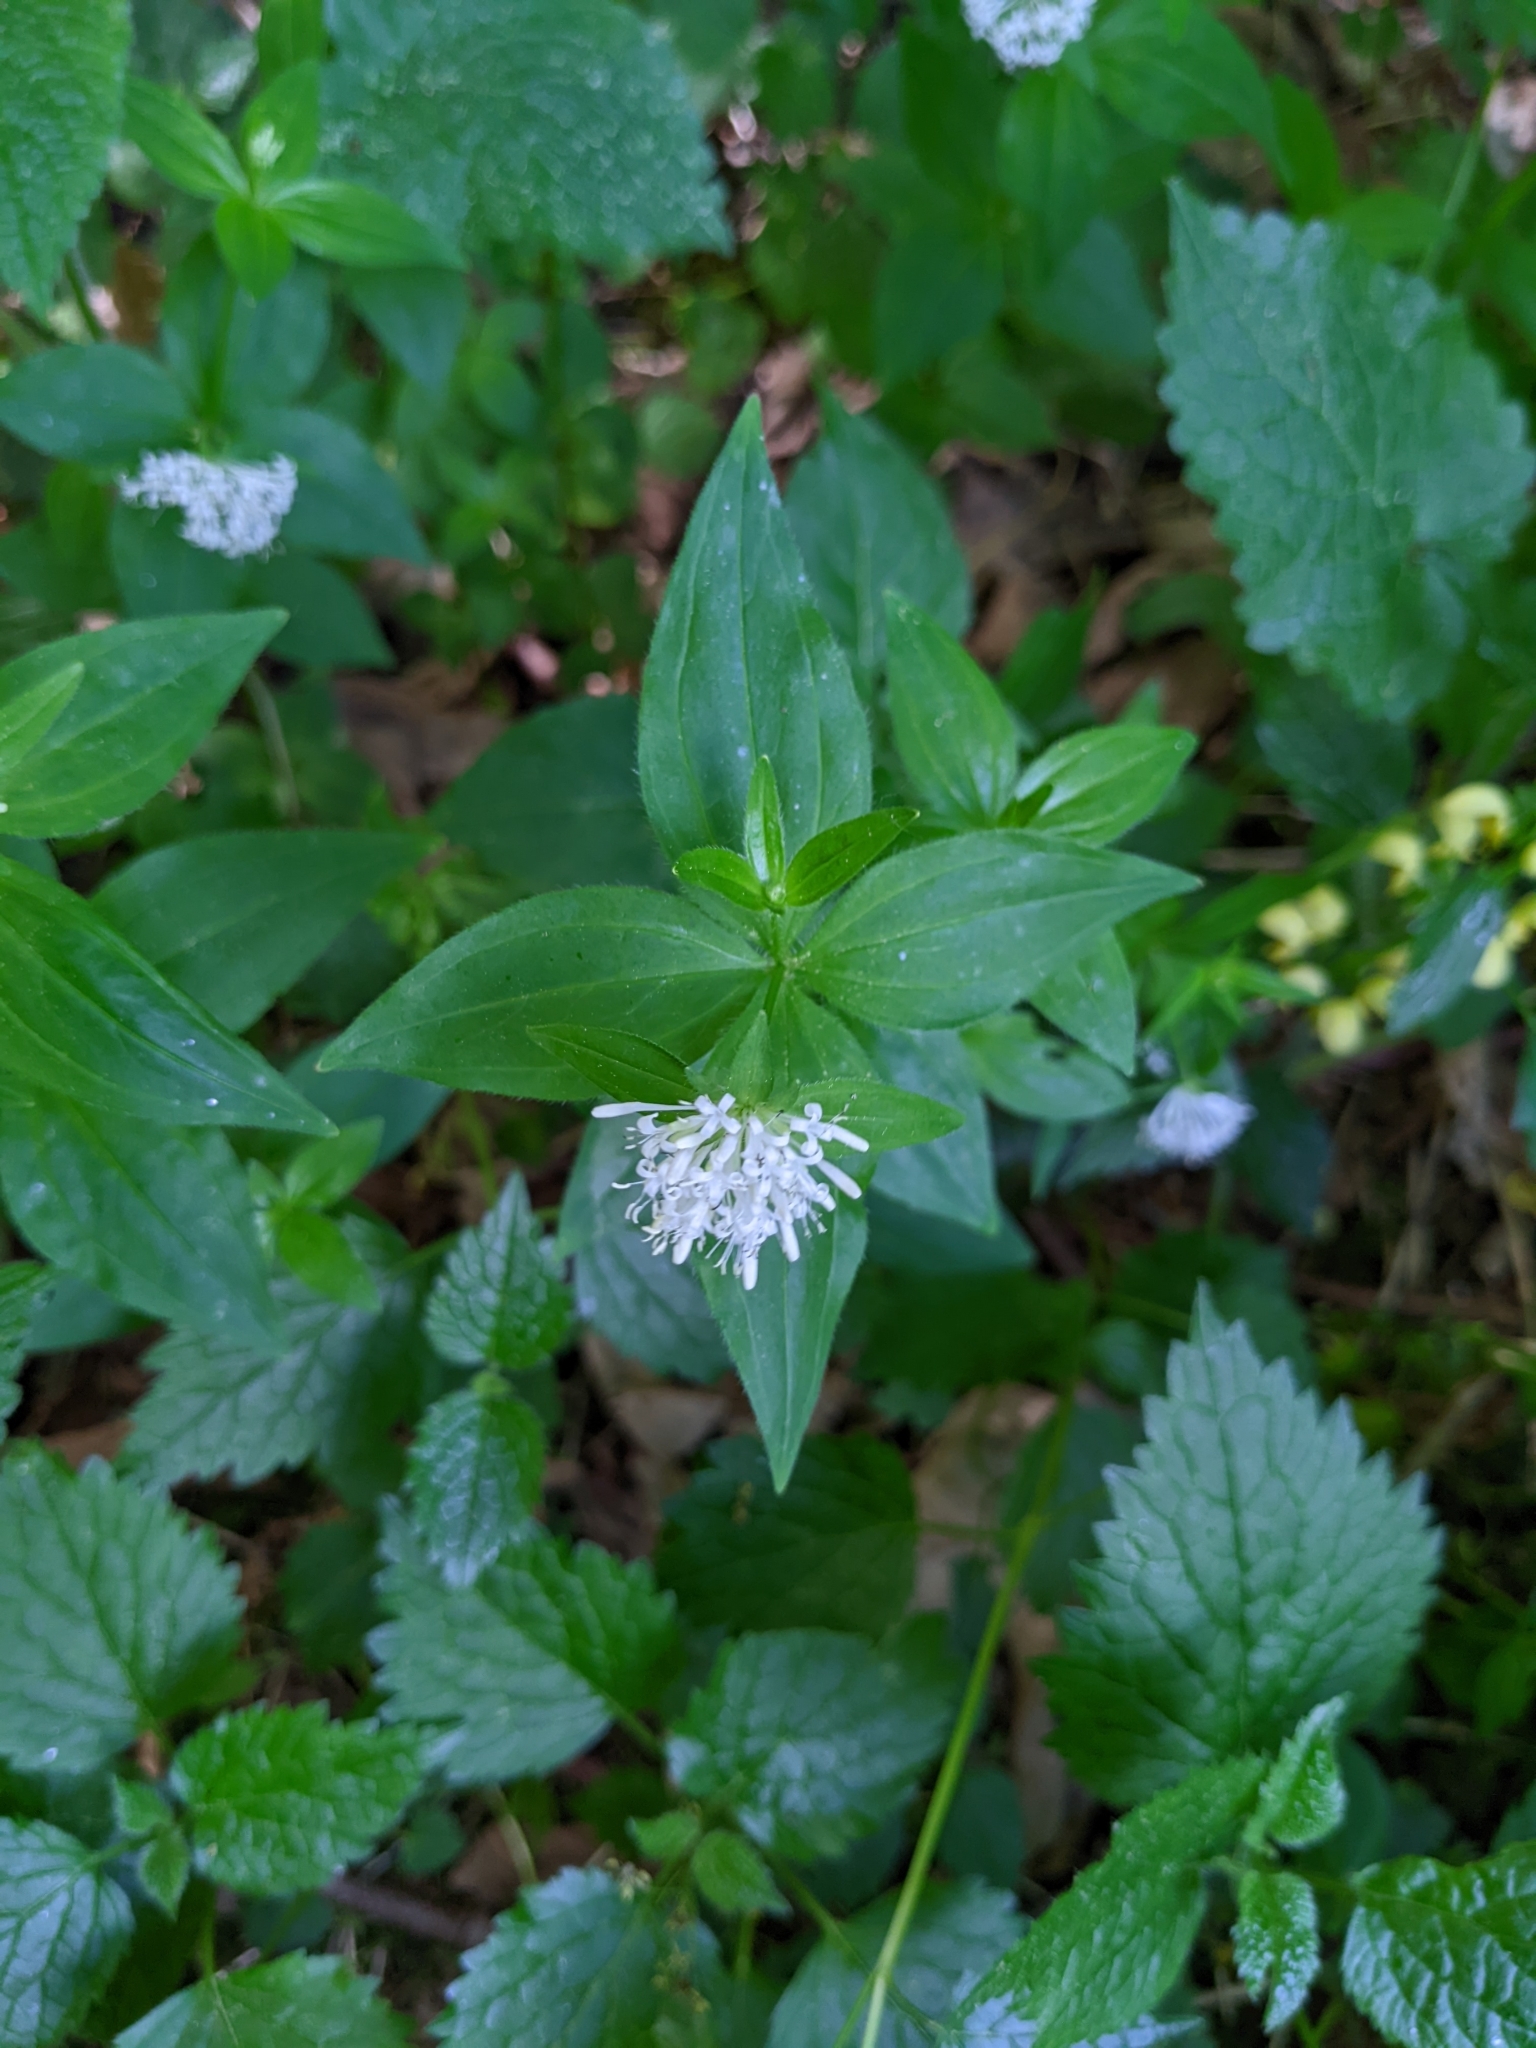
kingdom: Plantae
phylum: Tracheophyta
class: Magnoliopsida
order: Gentianales
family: Rubiaceae
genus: Asperula
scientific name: Asperula taurina
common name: Pink woodruff
